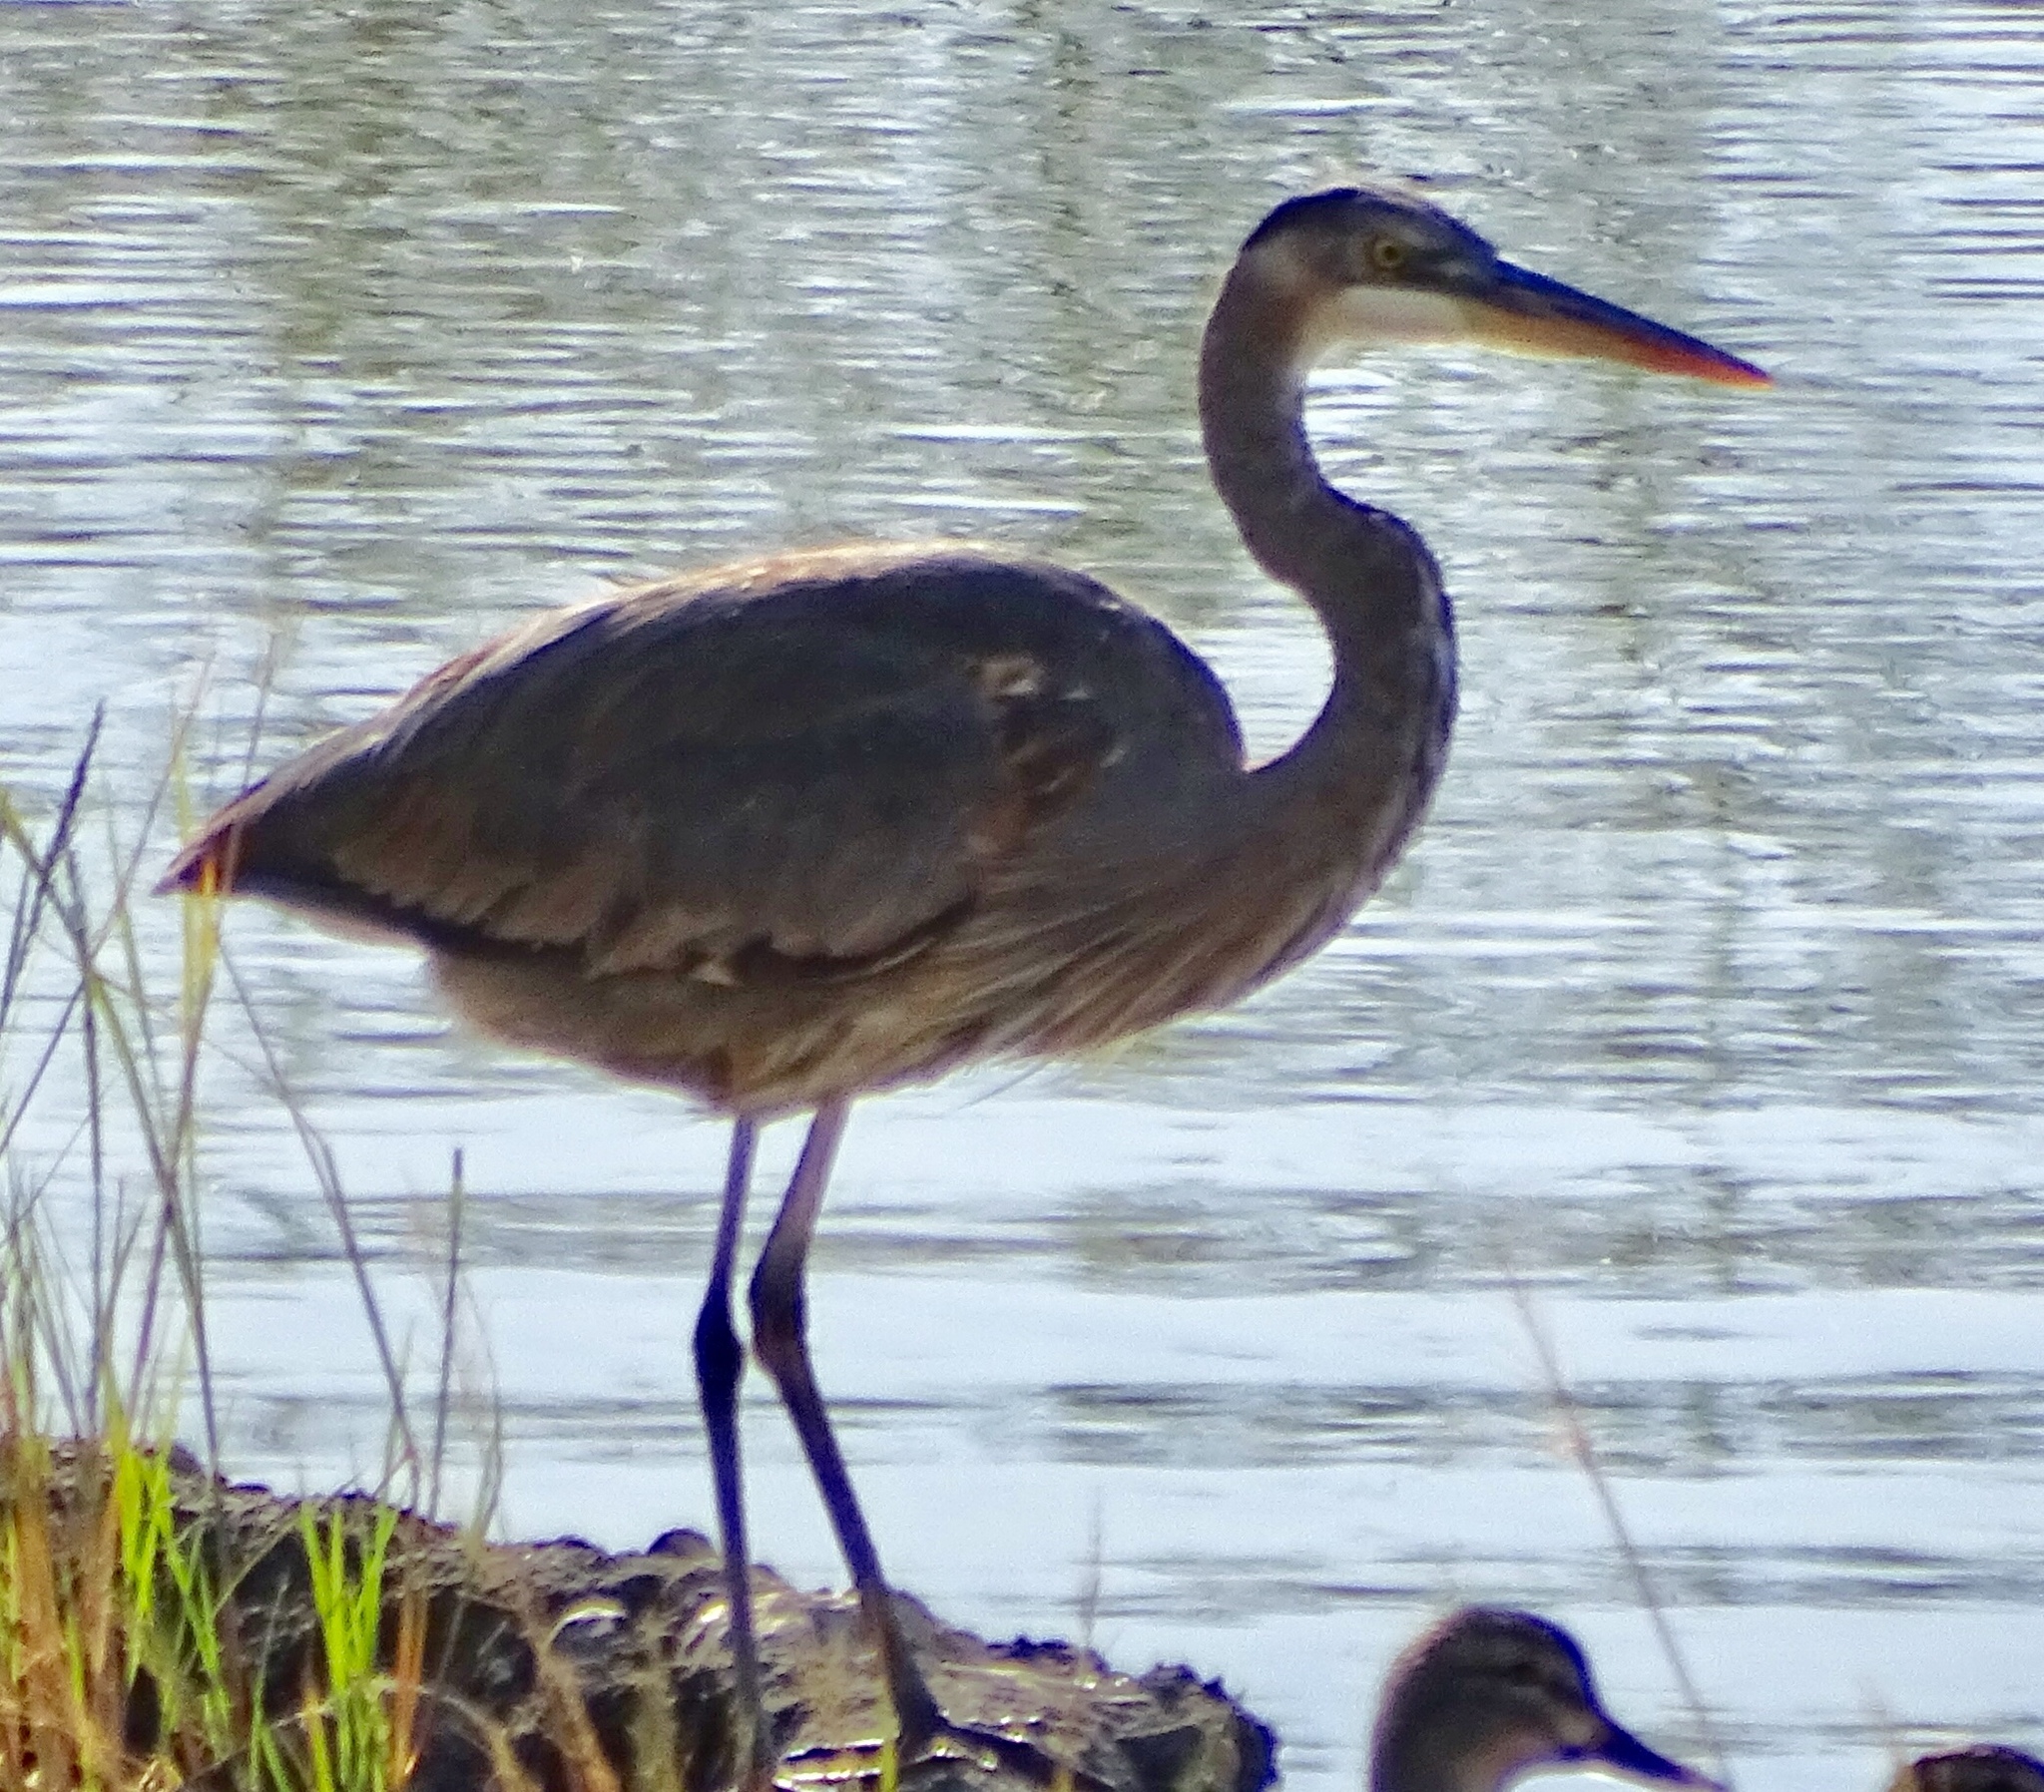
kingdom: Animalia
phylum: Chordata
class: Aves
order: Pelecaniformes
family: Ardeidae
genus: Ardea
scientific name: Ardea herodias
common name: Great blue heron
